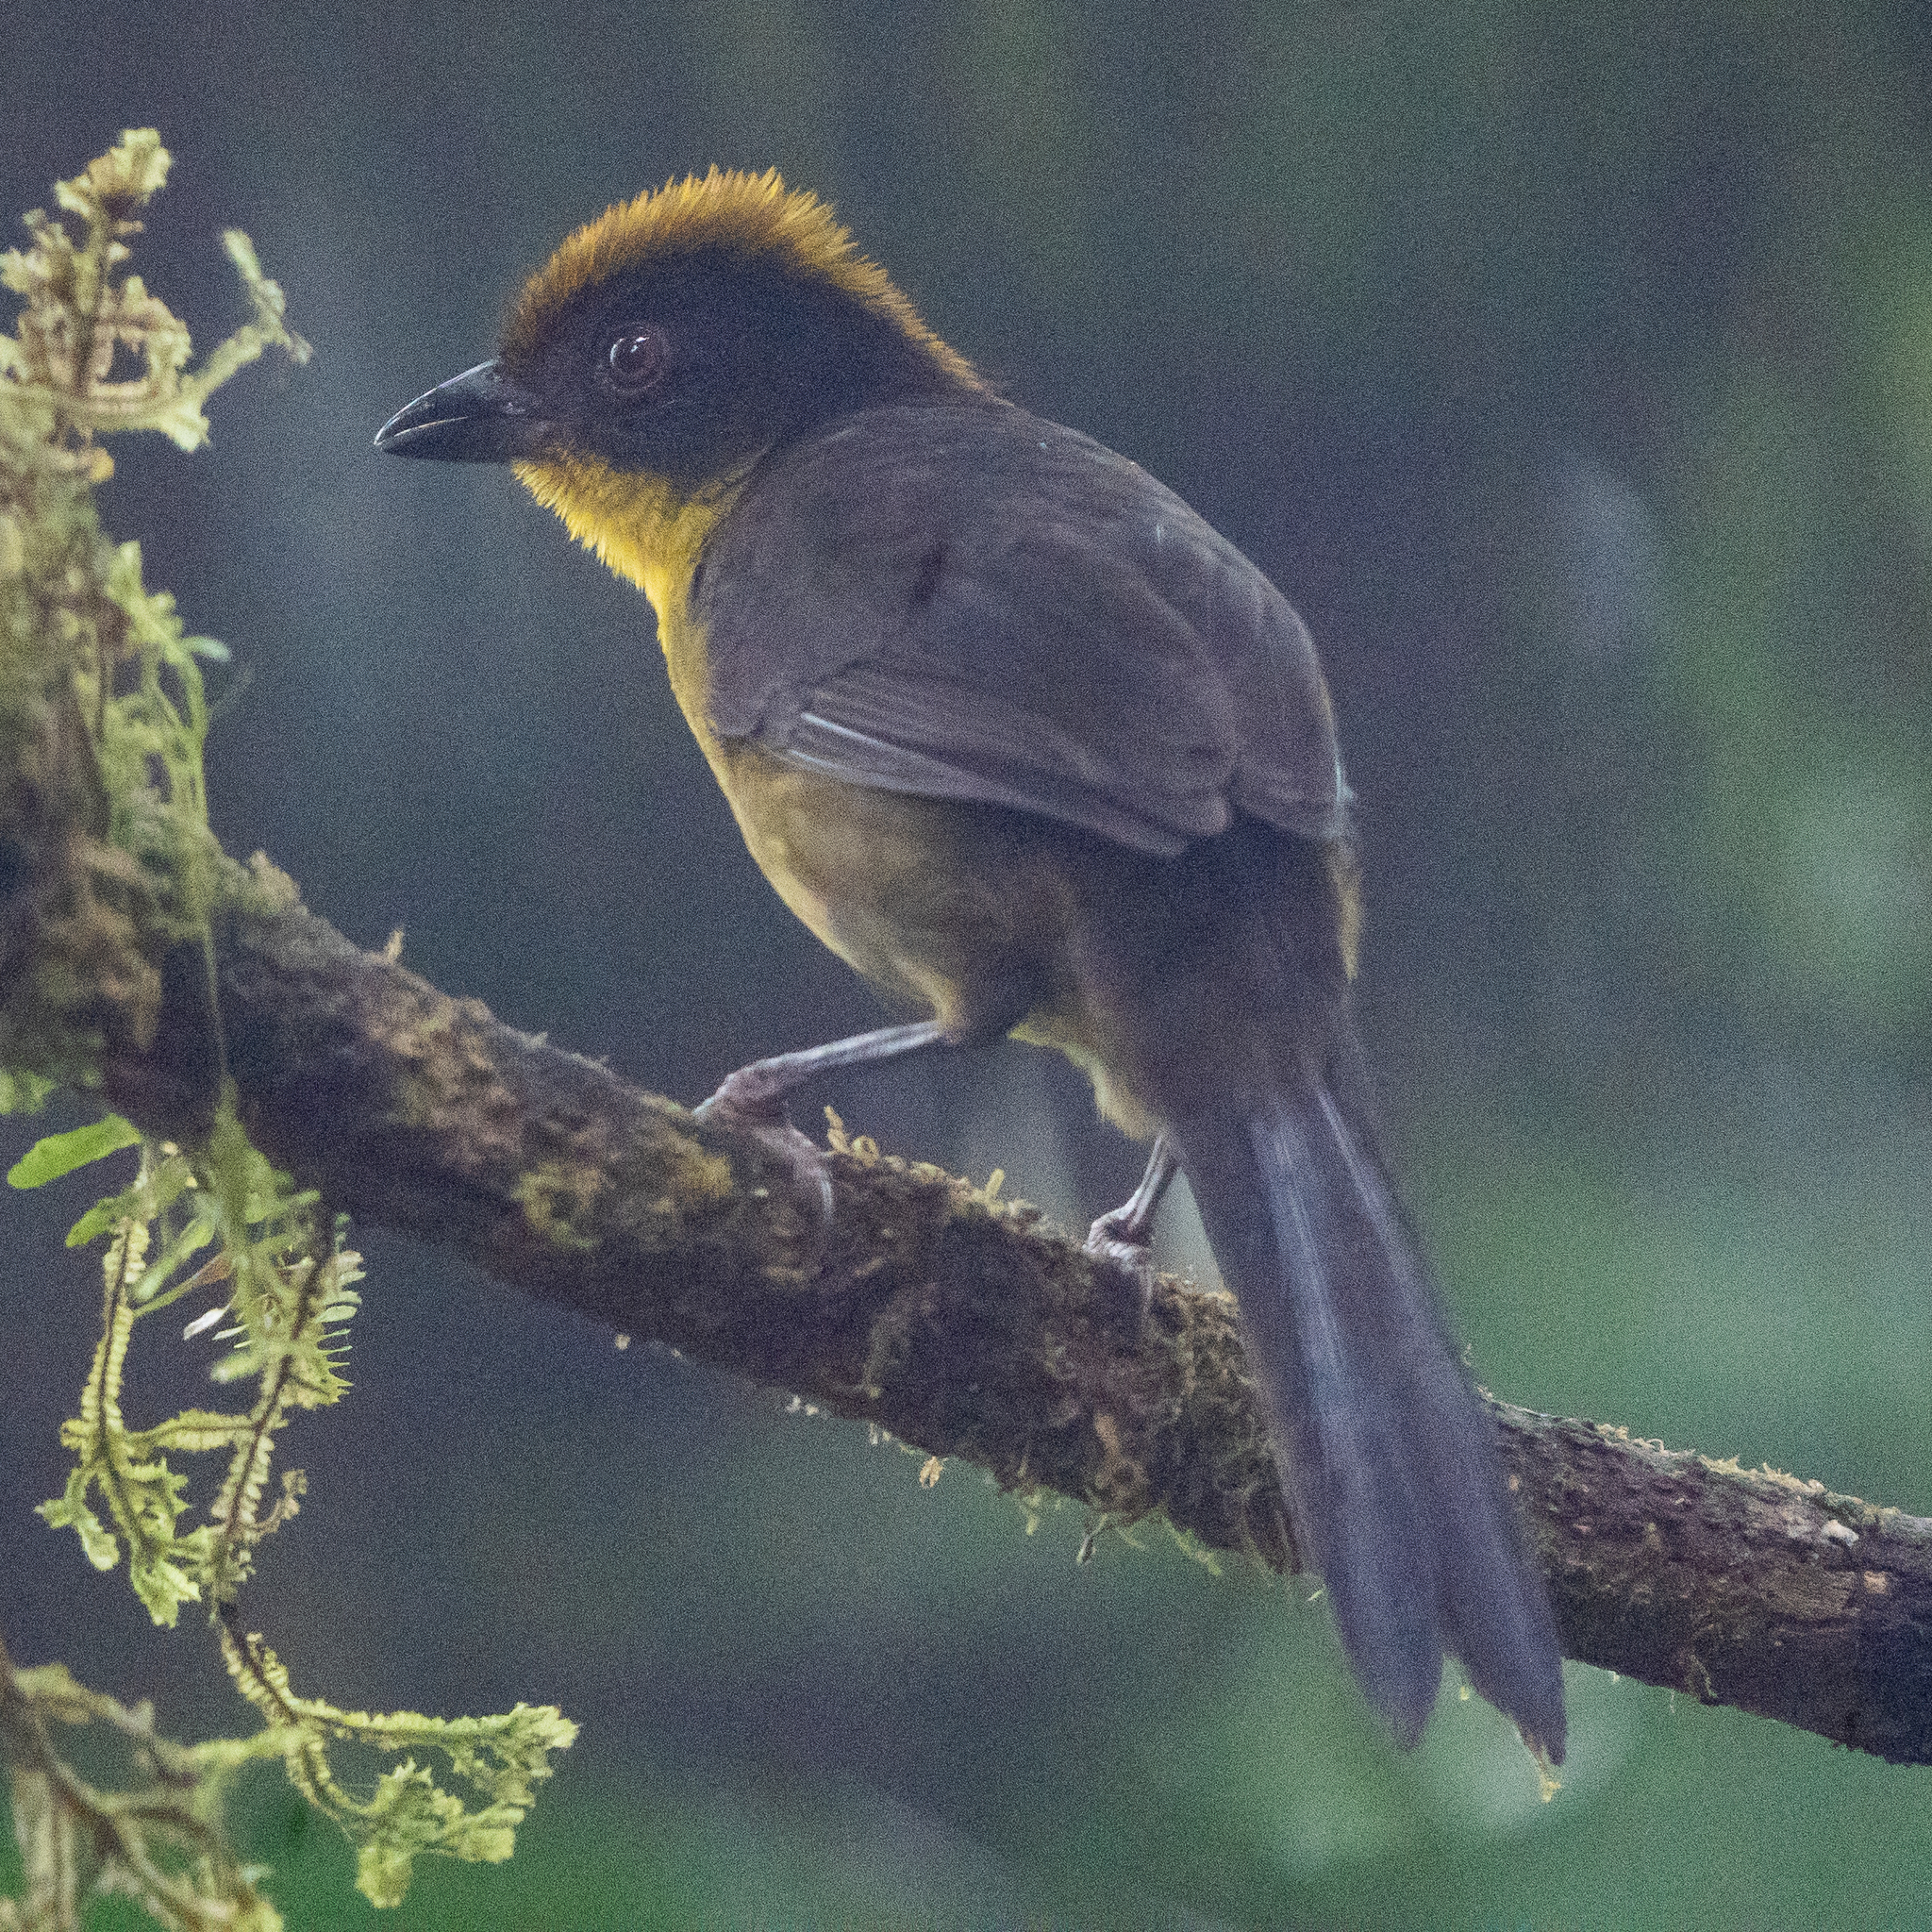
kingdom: Animalia
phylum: Chordata
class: Aves
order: Passeriformes
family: Passerellidae
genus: Atlapetes
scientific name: Atlapetes tricolor
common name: Tricolored brushfinch
